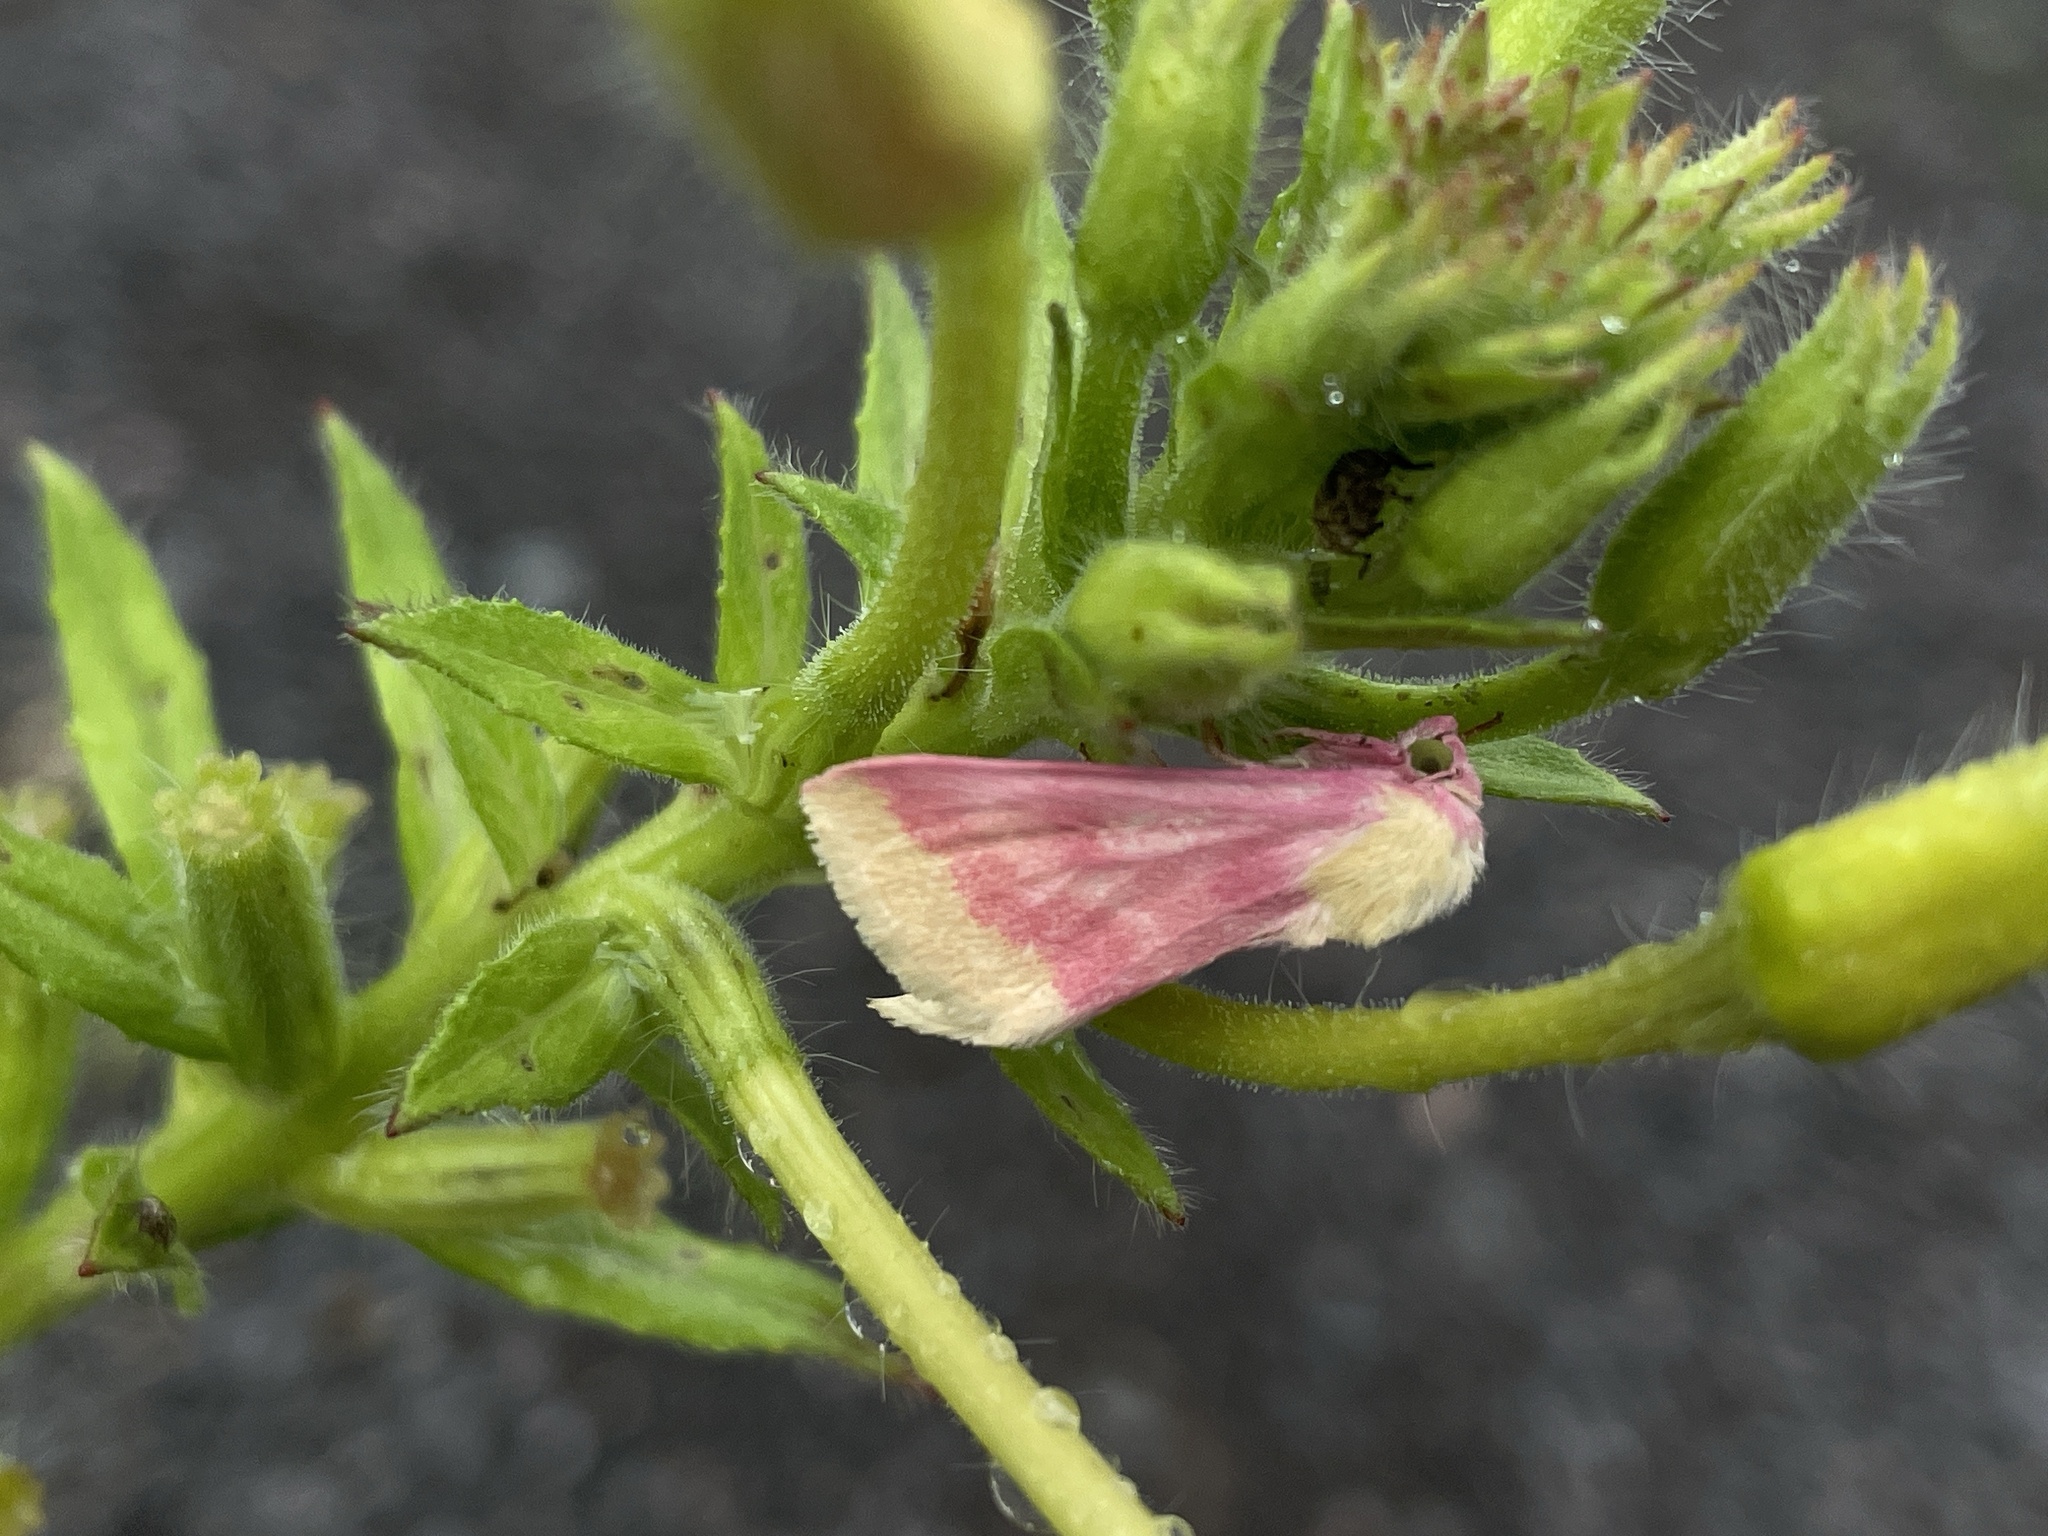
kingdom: Animalia
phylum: Arthropoda
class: Insecta
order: Lepidoptera
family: Noctuidae
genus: Schinia
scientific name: Schinia florida
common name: Primrose moth
